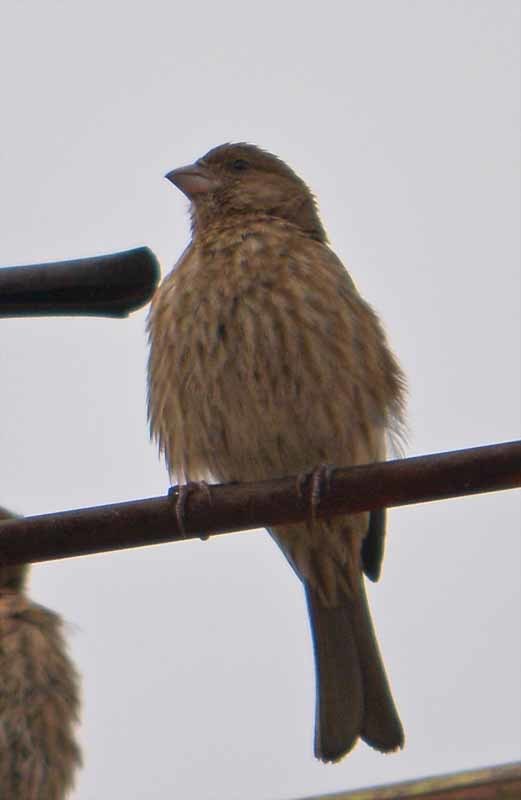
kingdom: Animalia
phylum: Chordata
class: Aves
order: Passeriformes
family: Fringillidae
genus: Haemorhous
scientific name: Haemorhous mexicanus
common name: House finch
